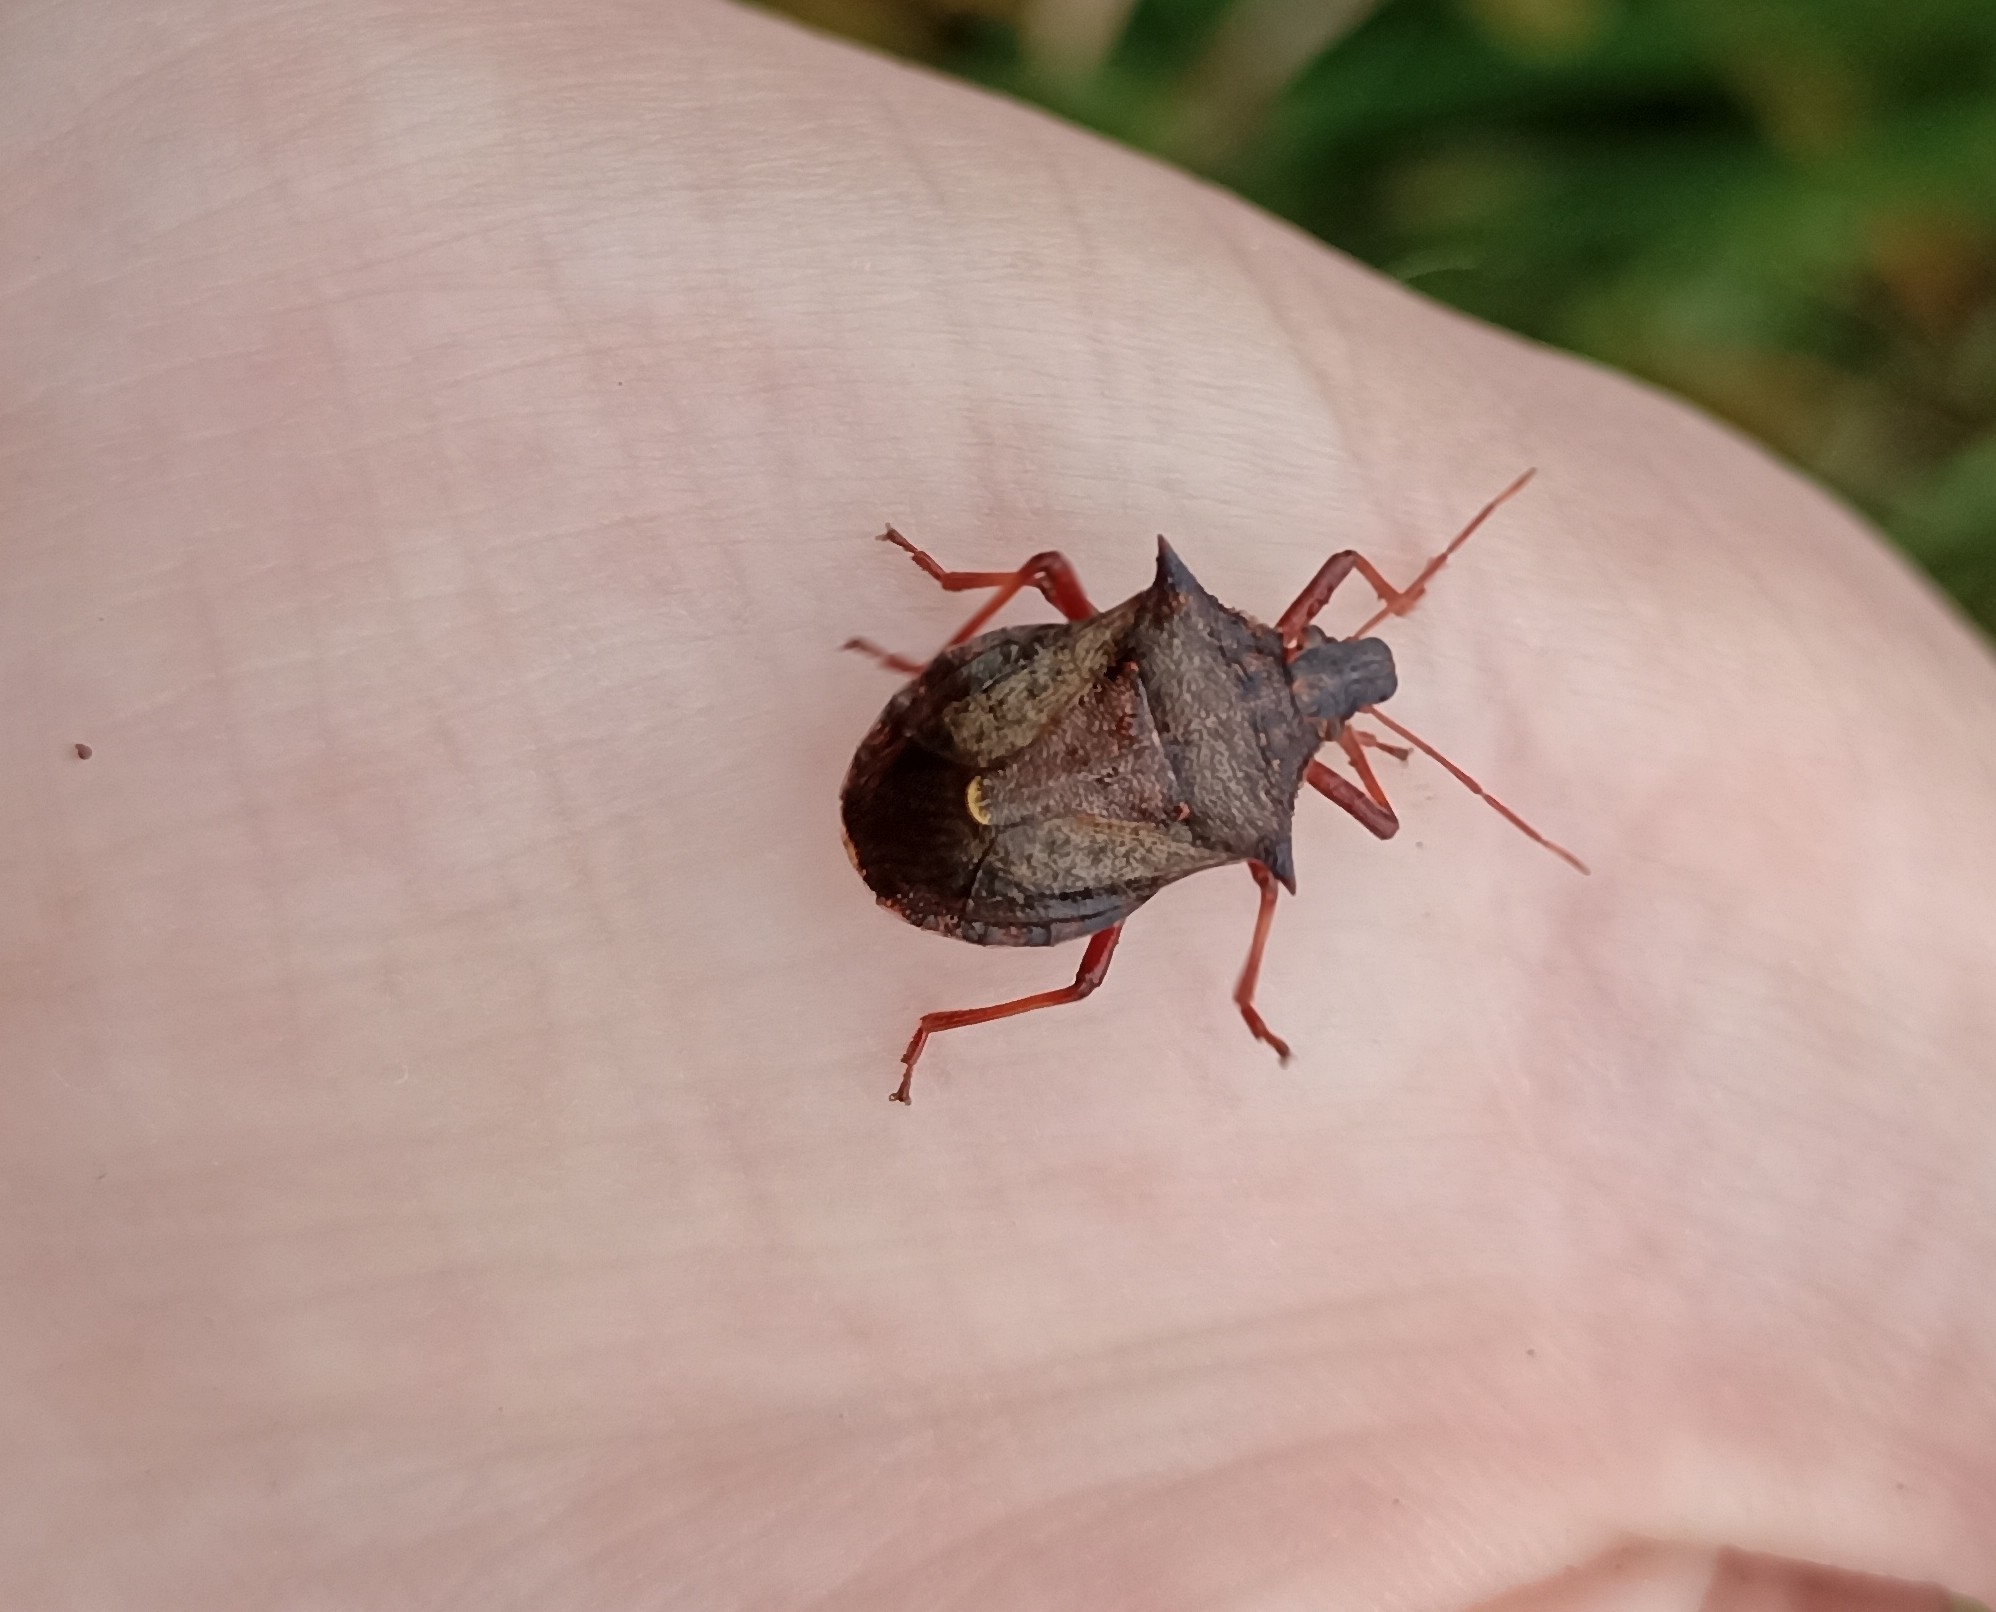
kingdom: Animalia
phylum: Arthropoda
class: Insecta
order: Hemiptera
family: Pentatomidae
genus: Picromerus
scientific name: Picromerus bidens
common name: Spiked shieldbug
